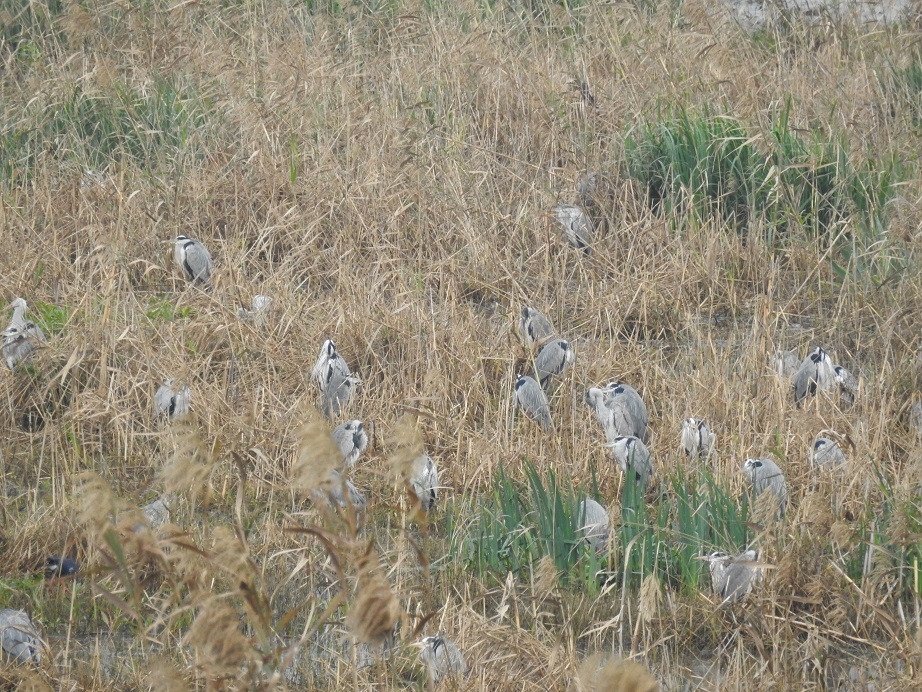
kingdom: Animalia
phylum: Chordata
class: Aves
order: Pelecaniformes
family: Ardeidae
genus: Ardea
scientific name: Ardea cinerea
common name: Grey heron
